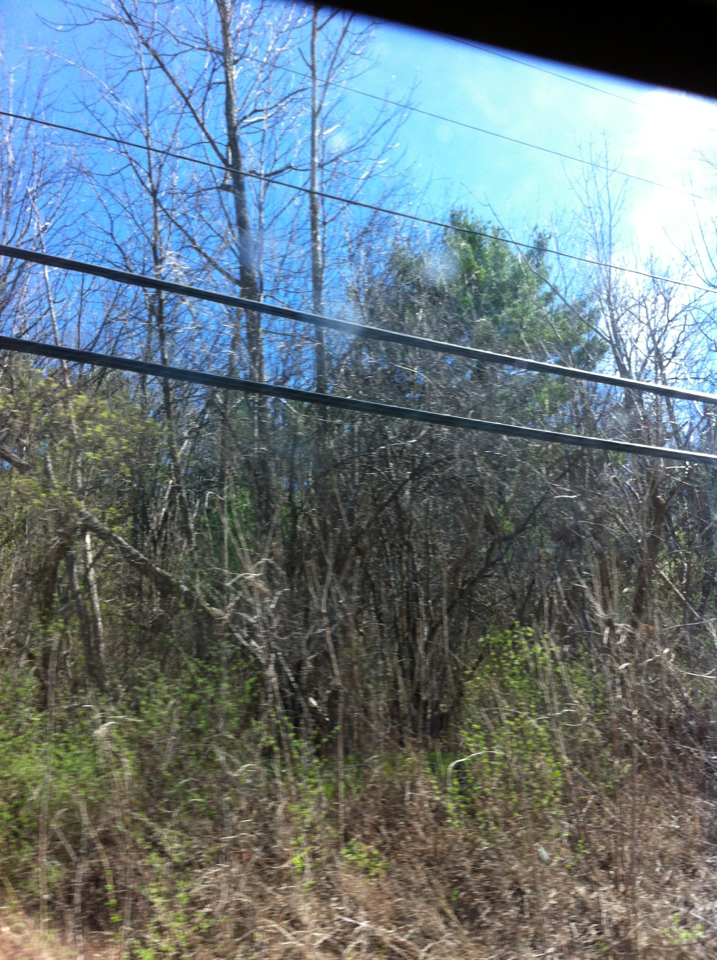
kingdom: Plantae
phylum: Tracheophyta
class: Pinopsida
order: Pinales
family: Pinaceae
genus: Pinus
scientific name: Pinus strobus
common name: Weymouth pine
